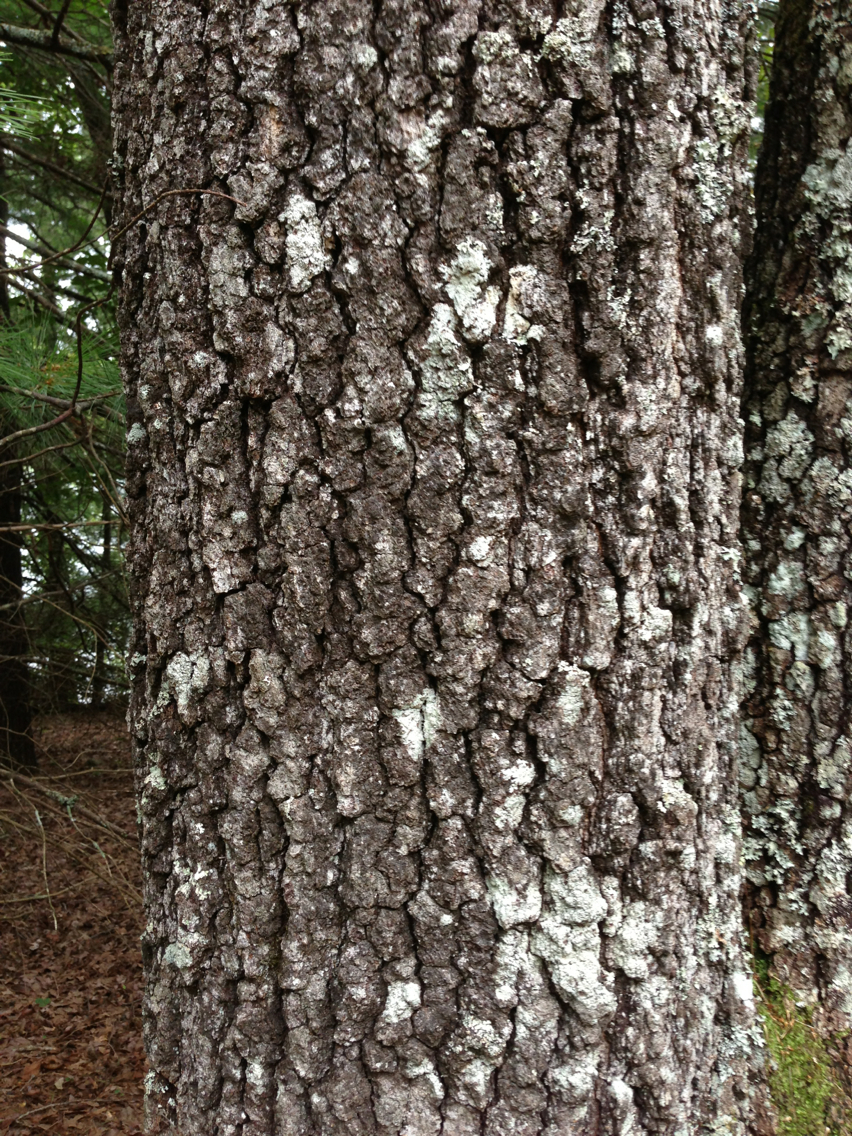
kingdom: Plantae
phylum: Tracheophyta
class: Magnoliopsida
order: Fagales
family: Fagaceae
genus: Quercus
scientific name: Quercus falcata
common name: Southern red oak
